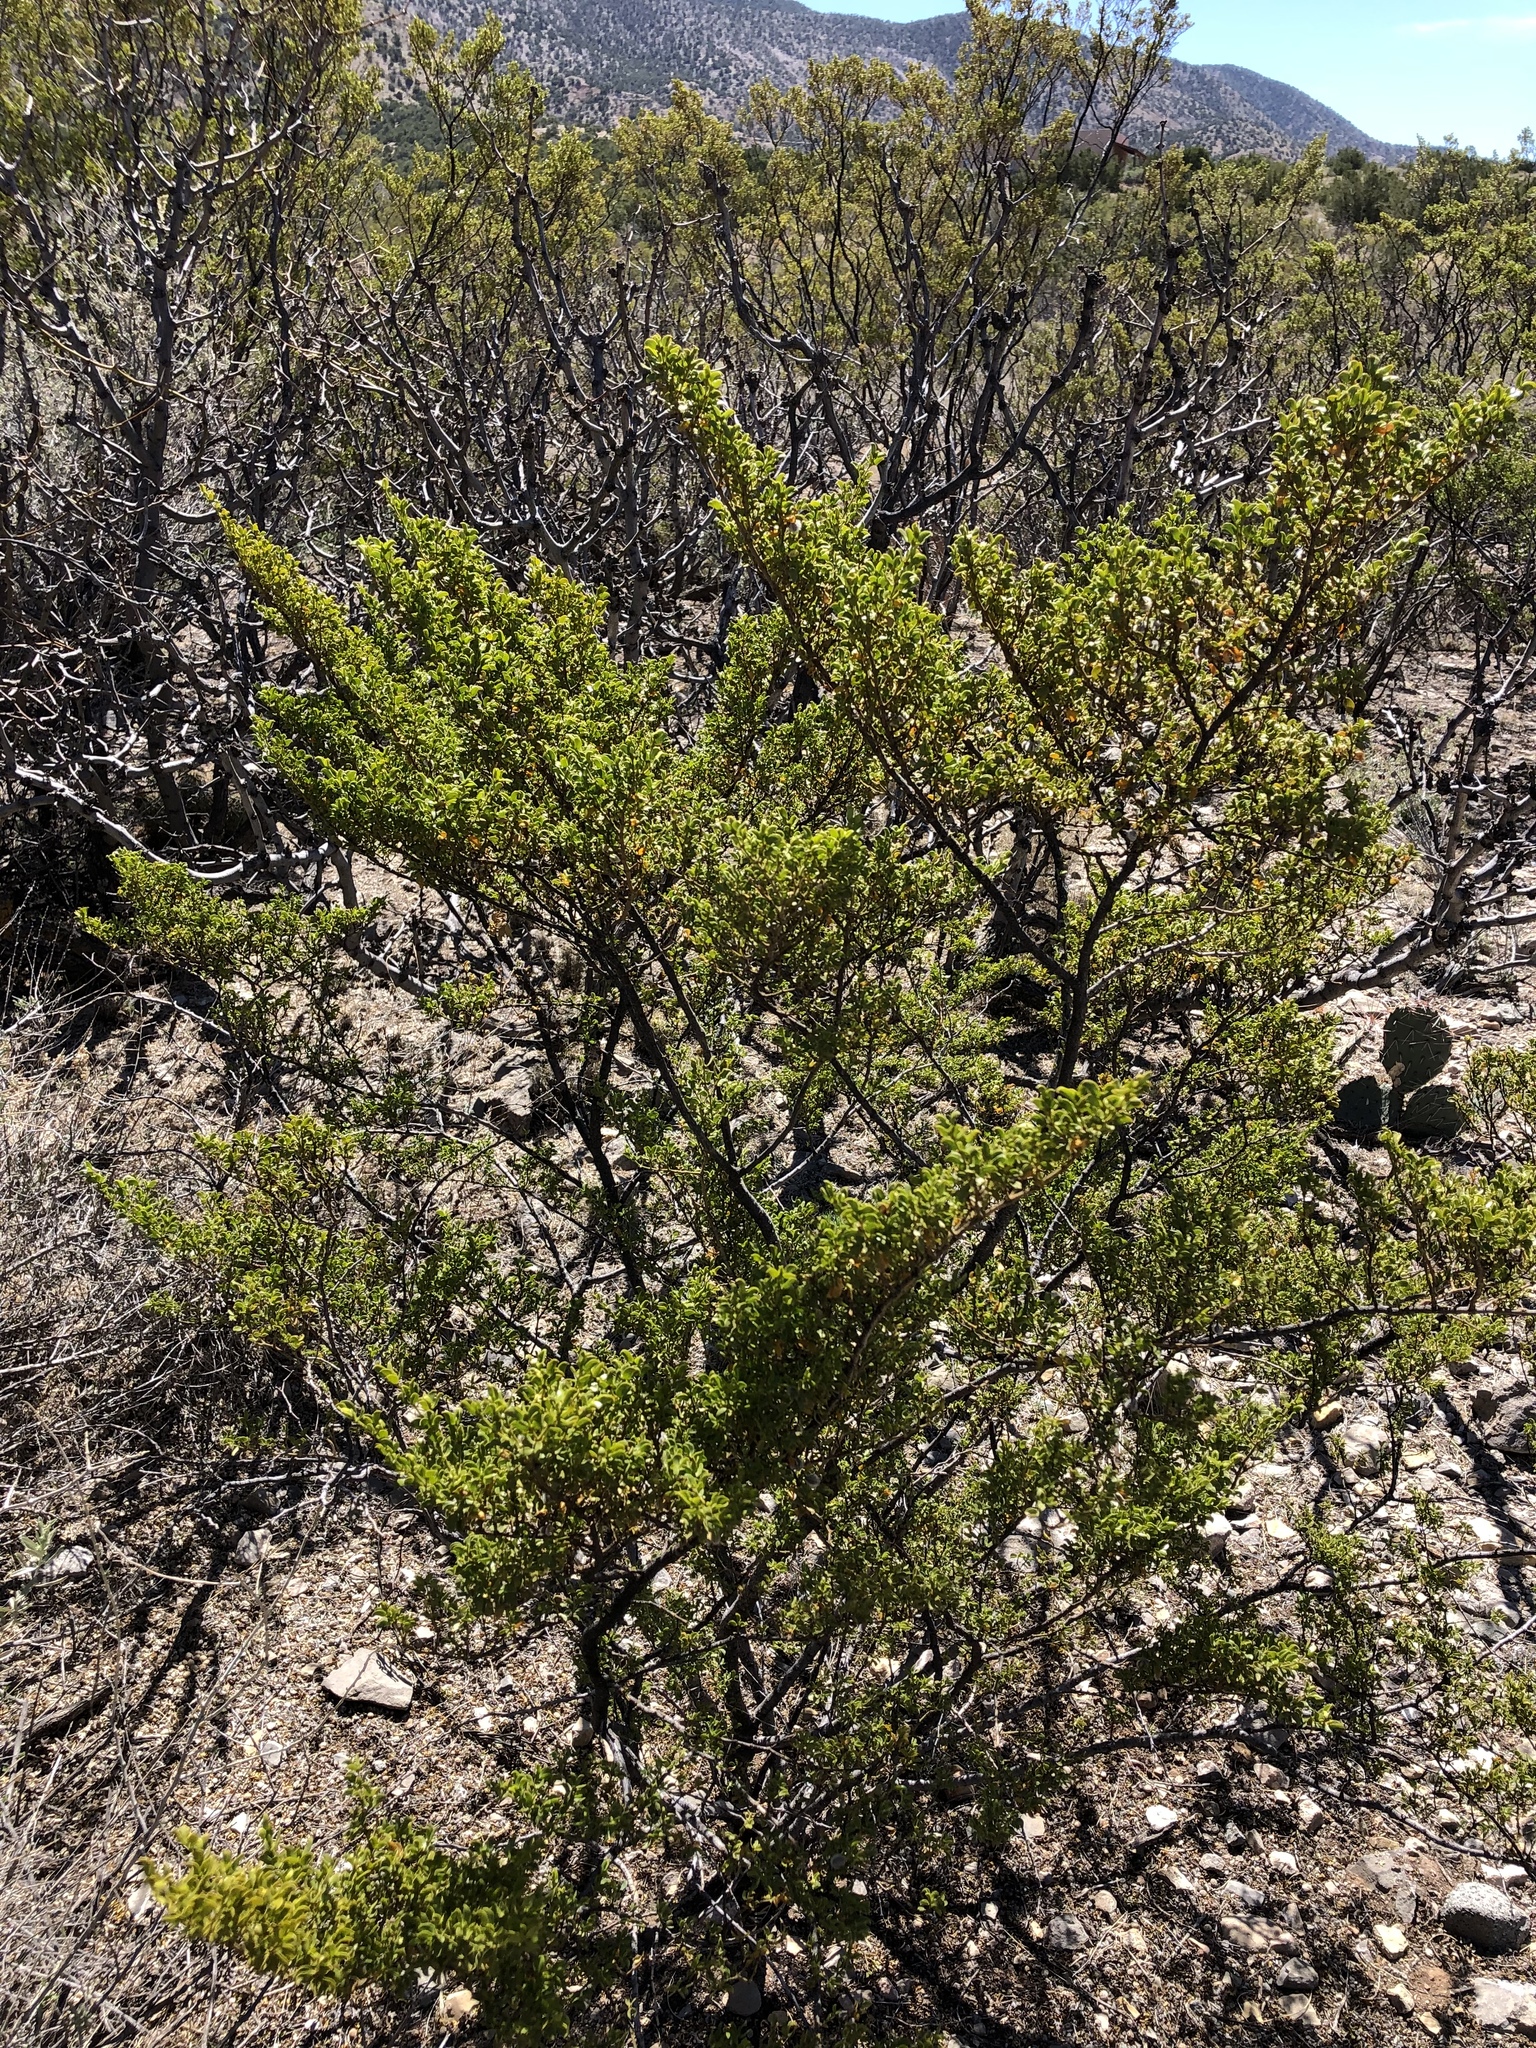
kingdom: Plantae
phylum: Tracheophyta
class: Magnoliopsida
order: Zygophyllales
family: Zygophyllaceae
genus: Larrea
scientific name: Larrea tridentata
